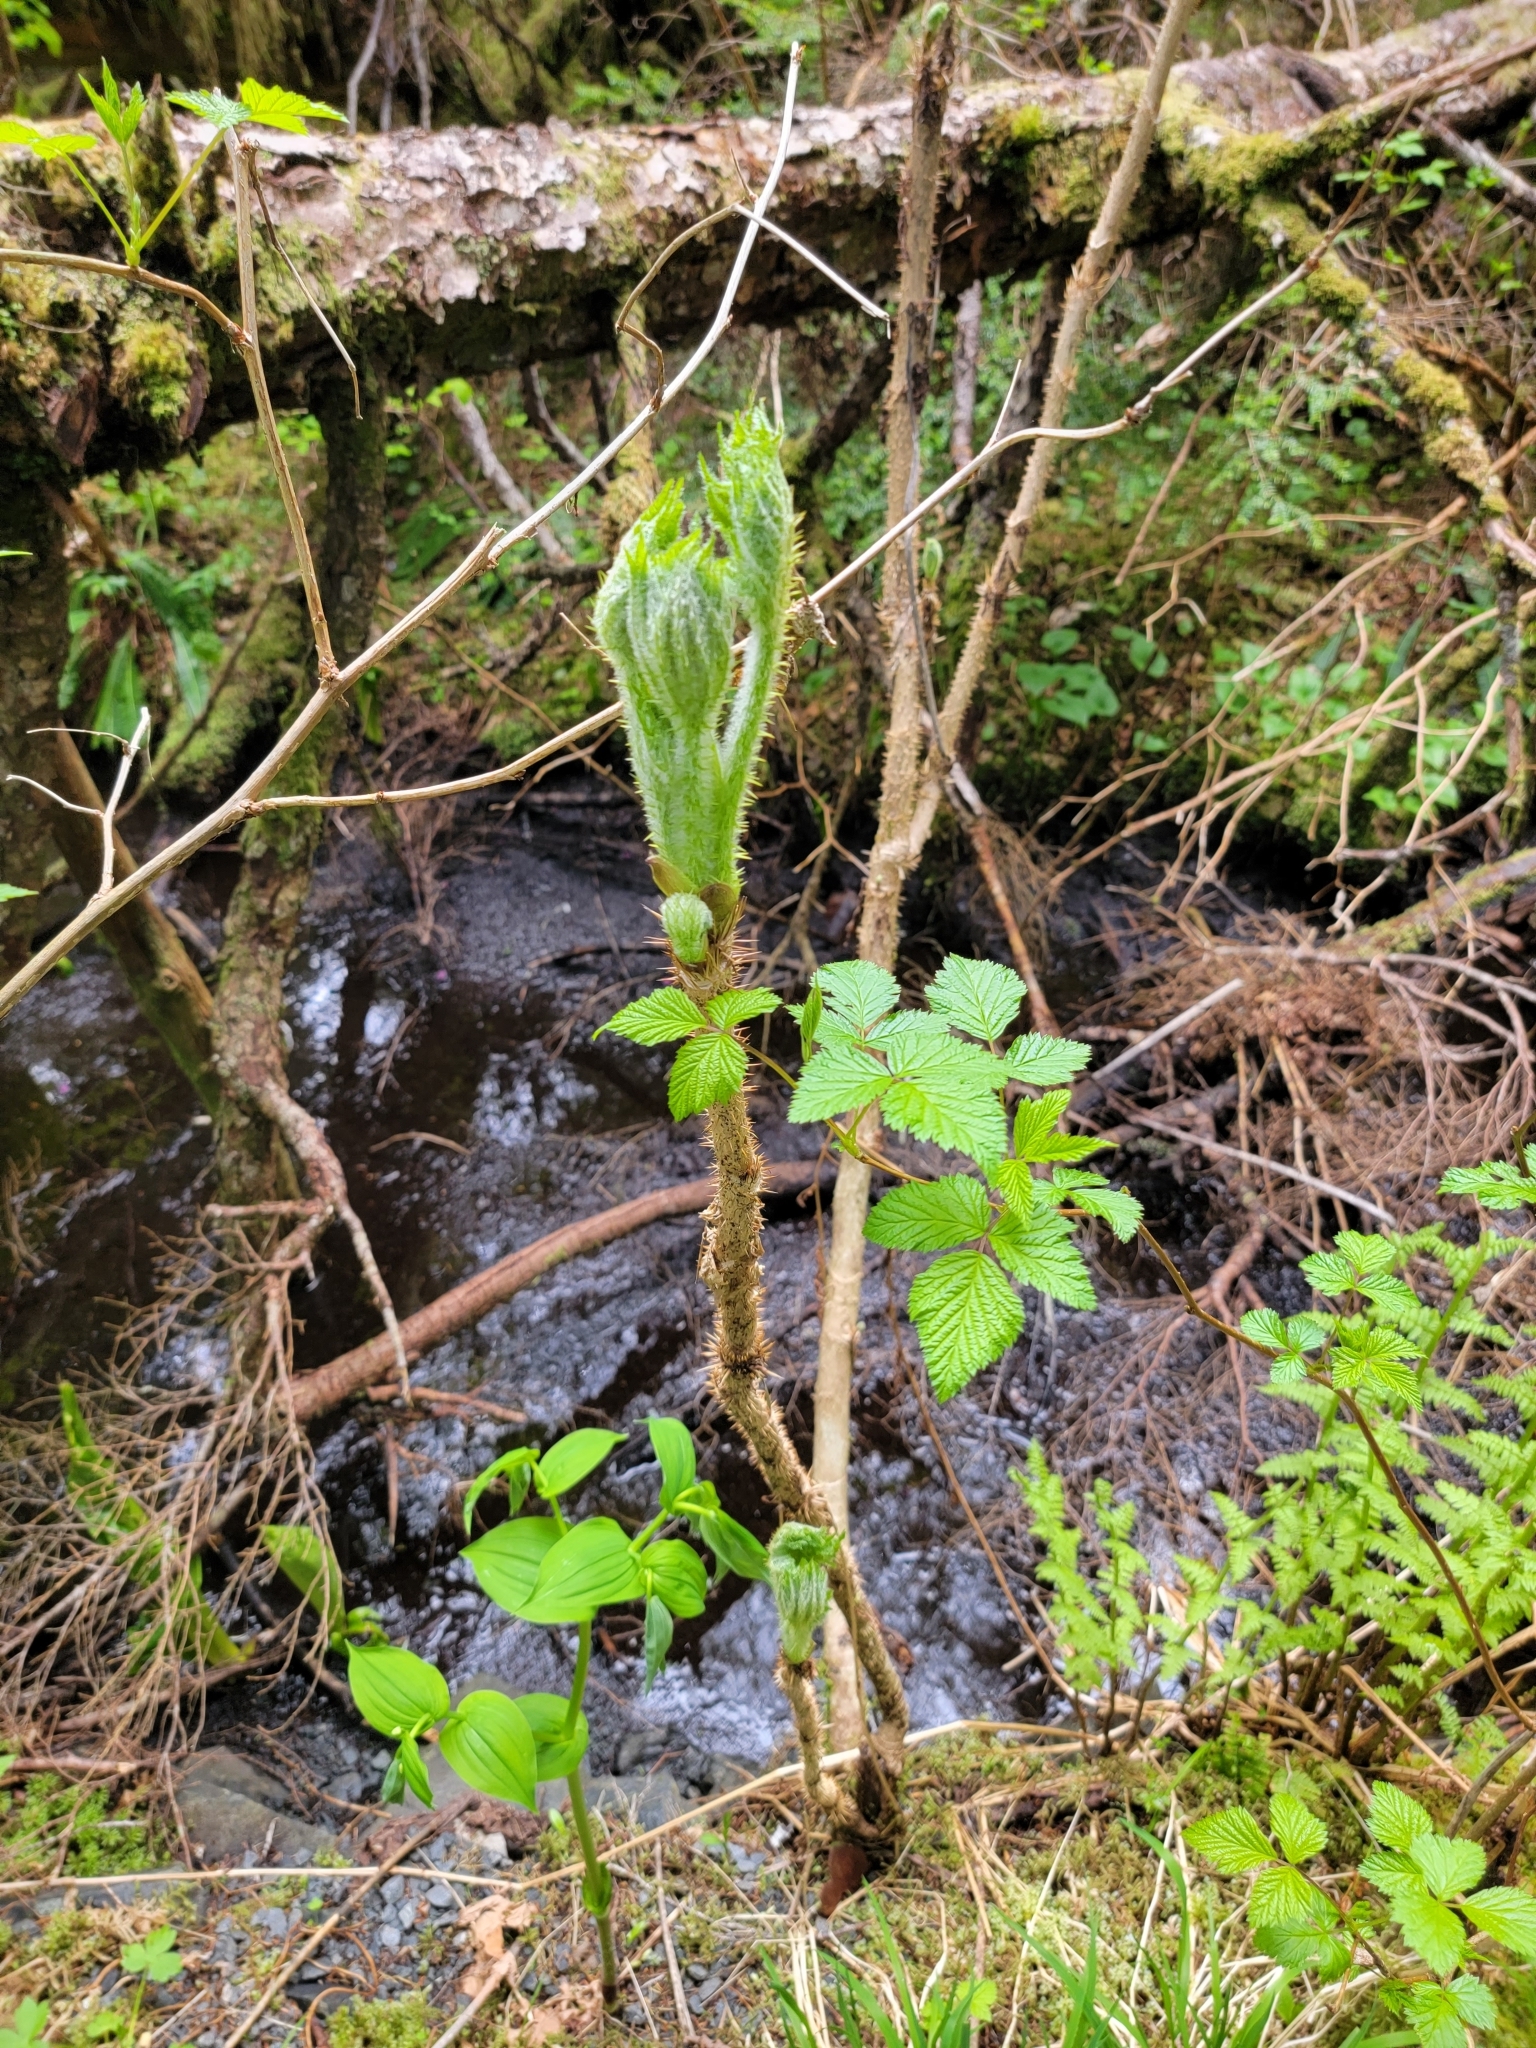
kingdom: Plantae
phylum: Tracheophyta
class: Magnoliopsida
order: Apiales
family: Araliaceae
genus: Oplopanax
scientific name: Oplopanax horridus
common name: Devil's walking-stick
